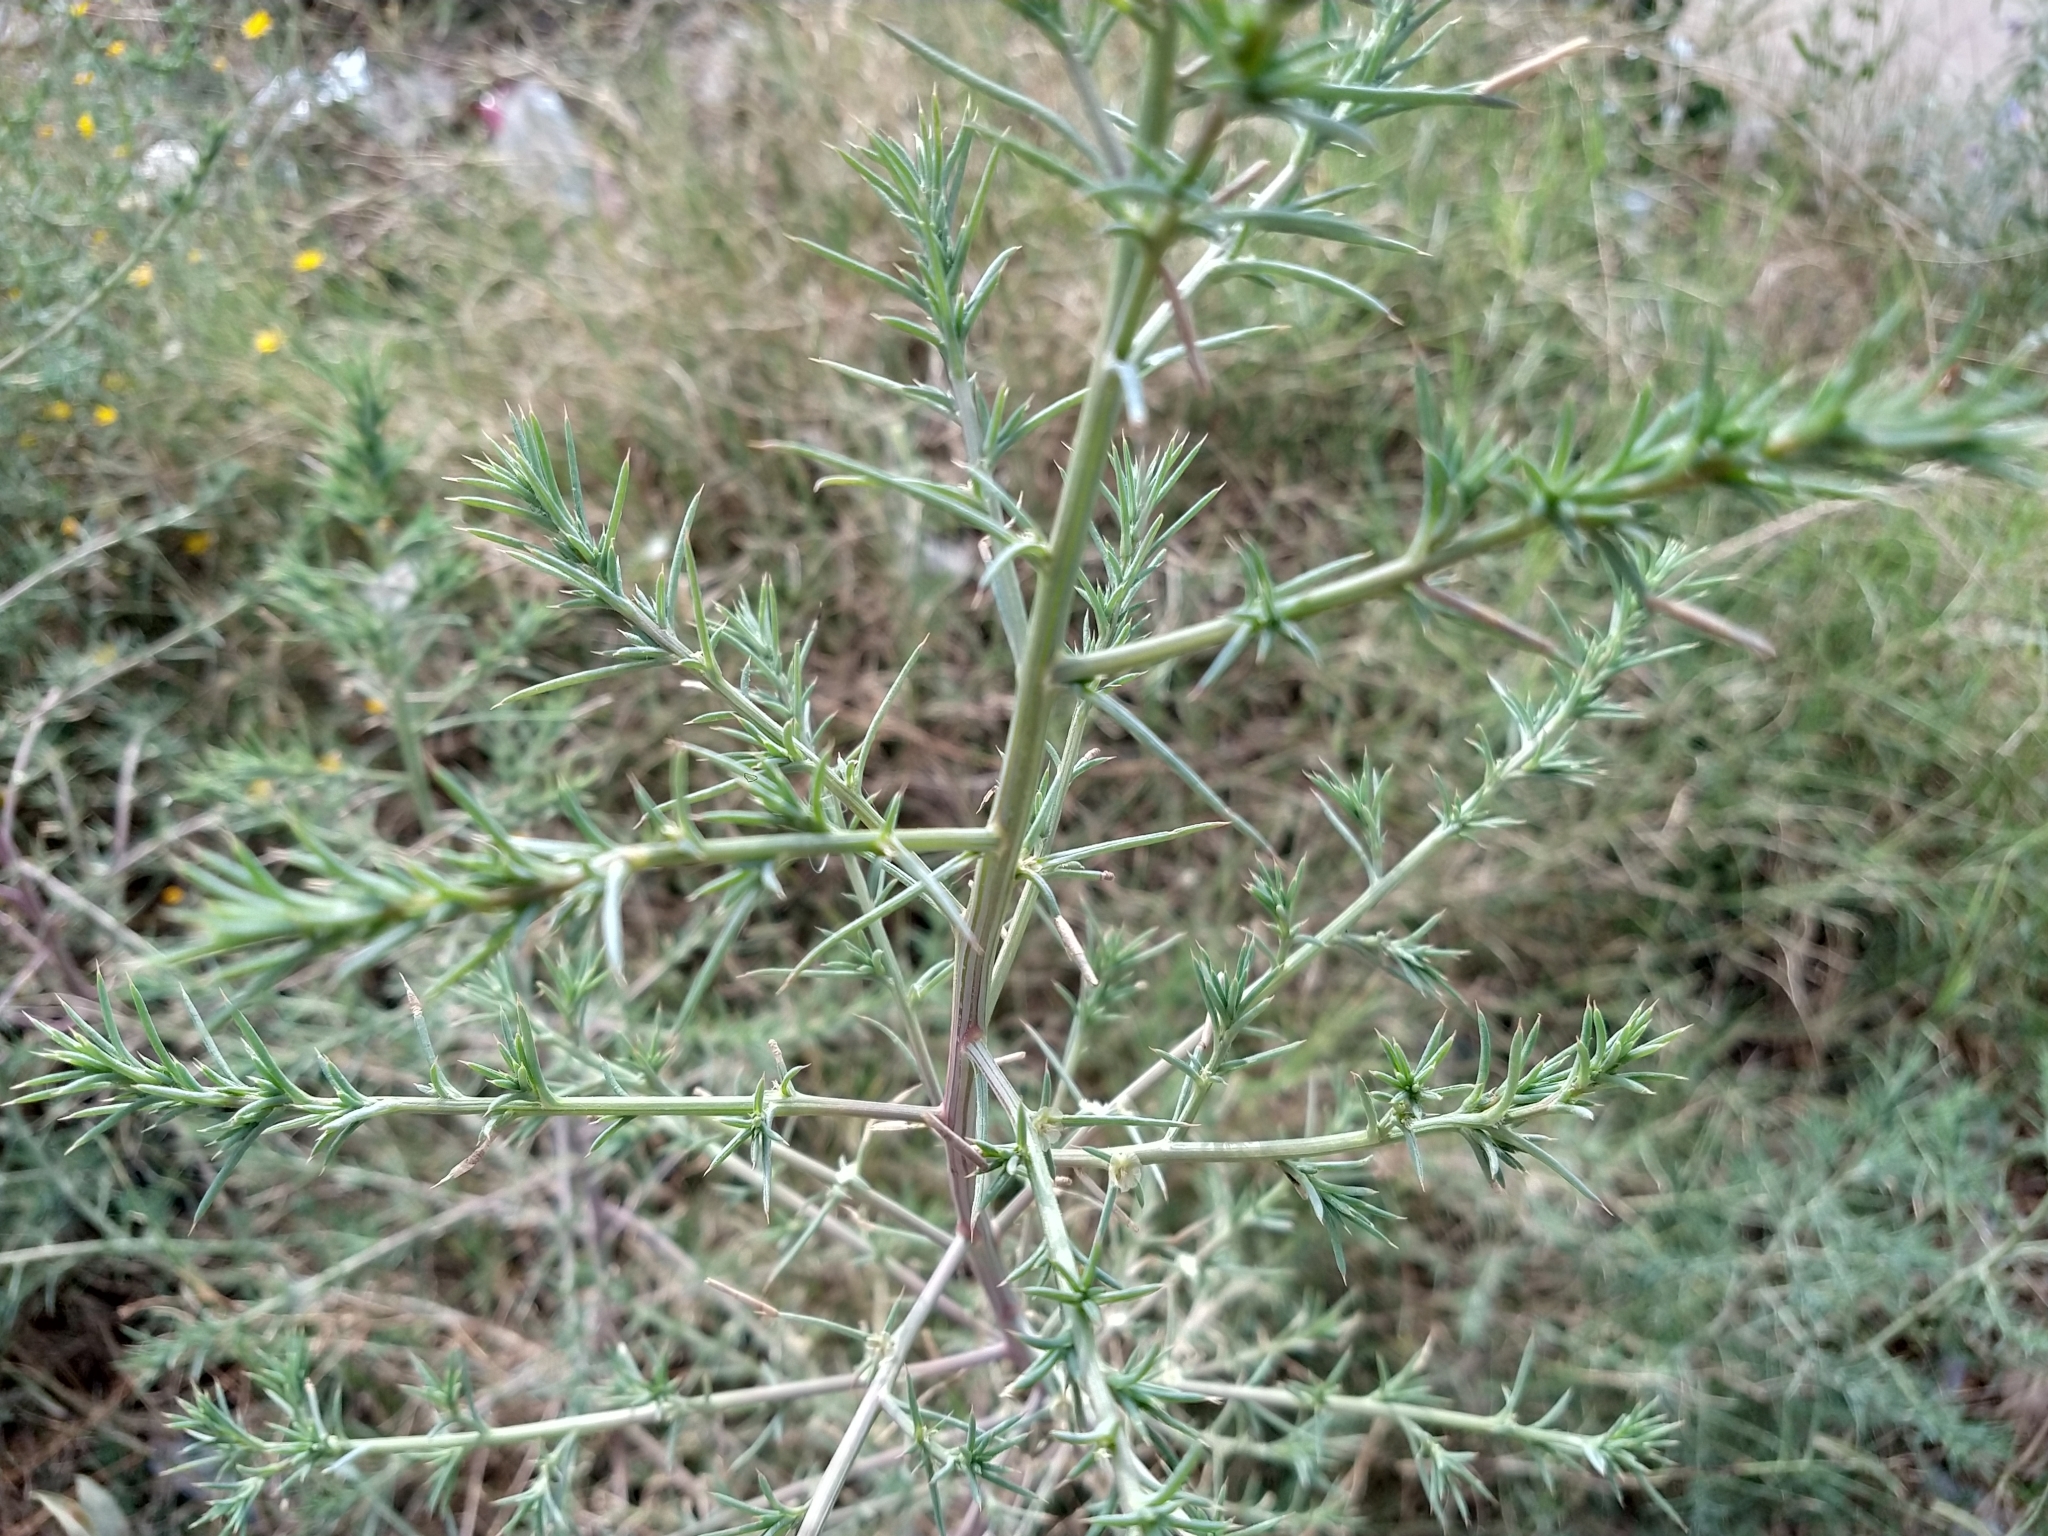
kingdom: Plantae
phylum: Tracheophyta
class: Magnoliopsida
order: Caryophyllales
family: Amaranthaceae
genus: Salsola
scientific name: Salsola tragus
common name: Prickly russian thistle
